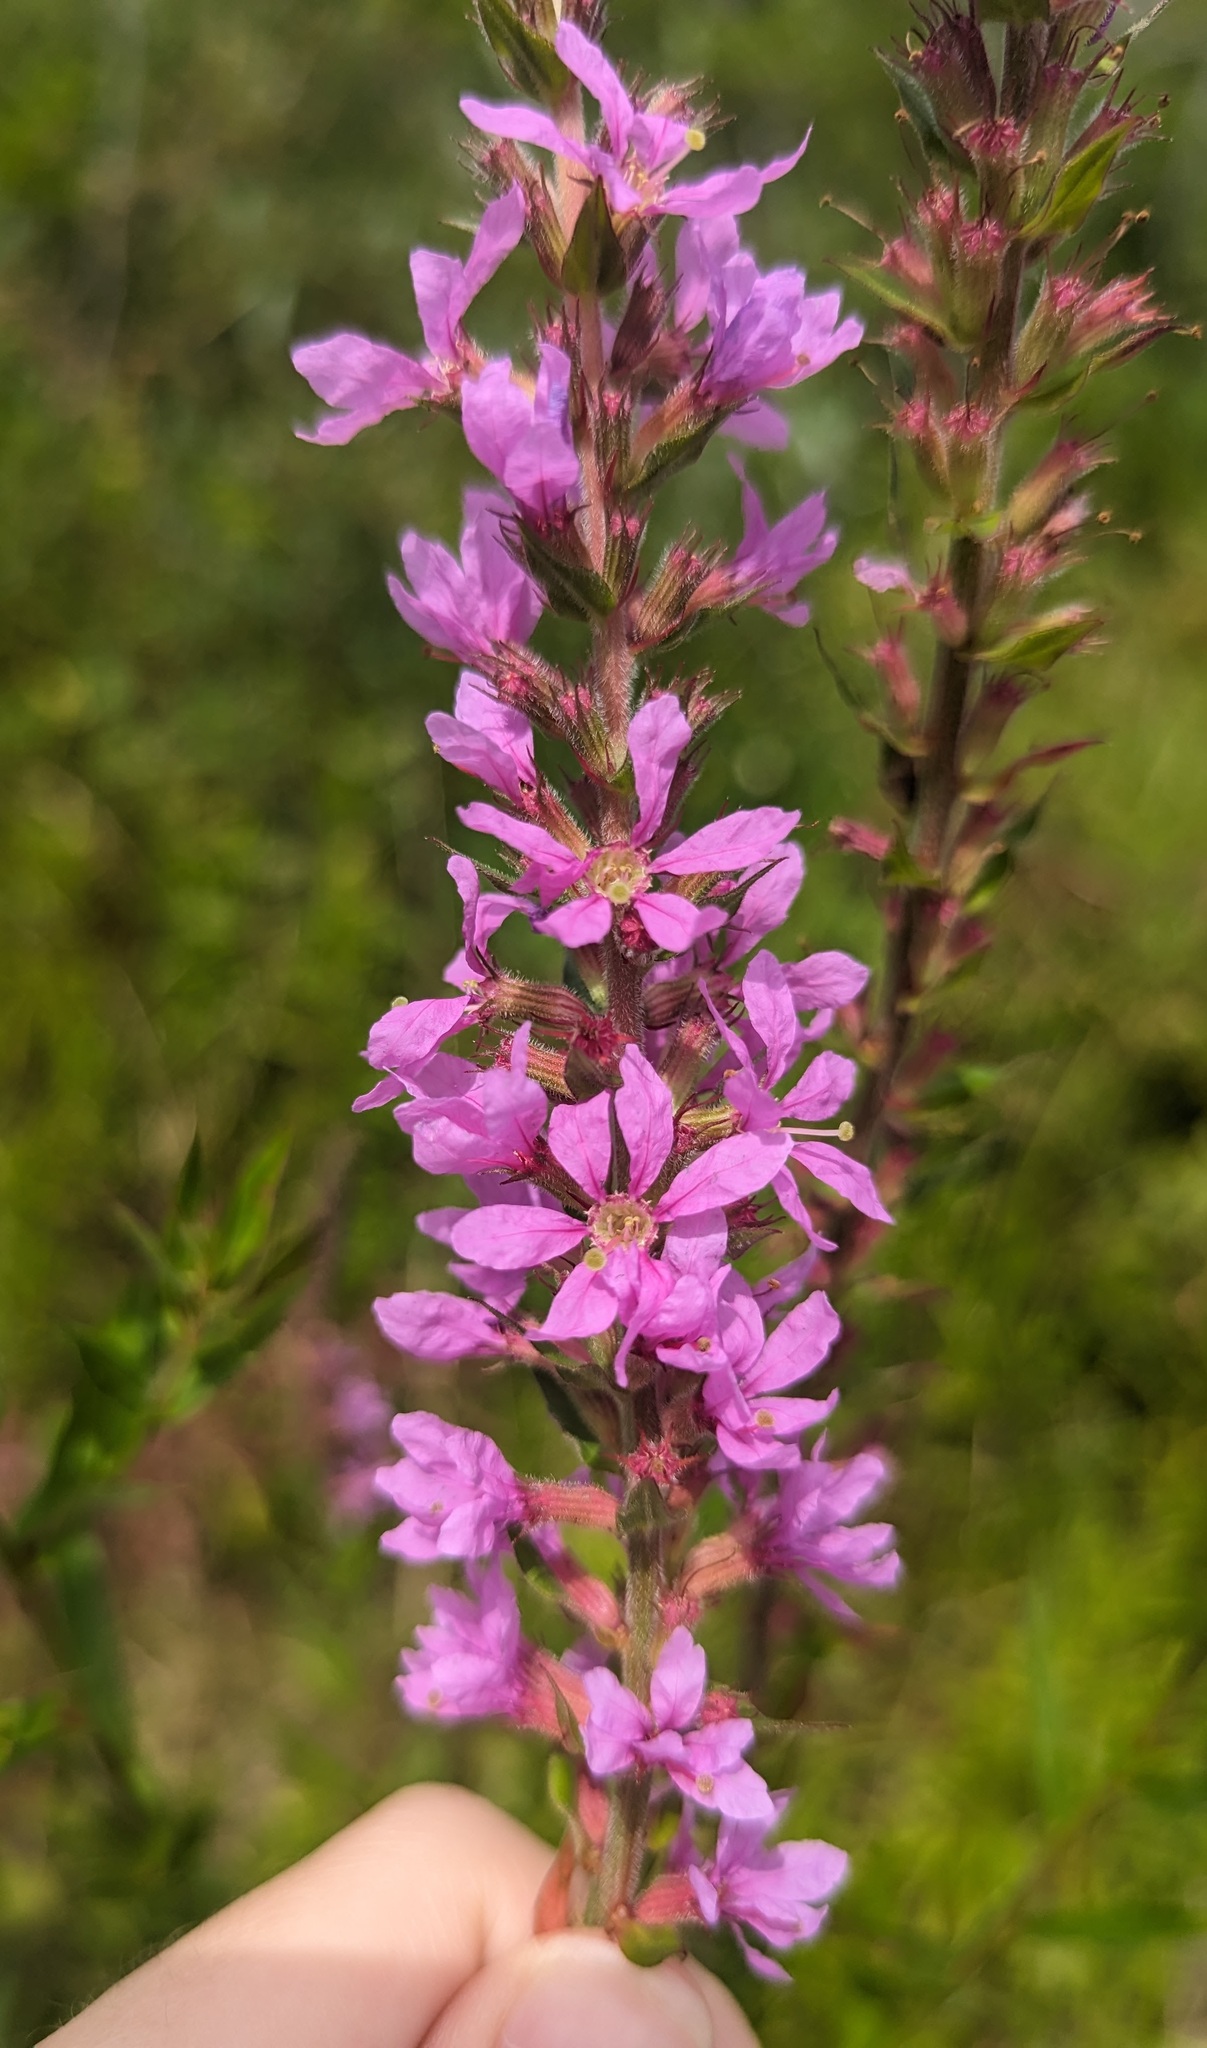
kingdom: Plantae
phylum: Tracheophyta
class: Magnoliopsida
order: Myrtales
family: Lythraceae
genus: Lythrum
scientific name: Lythrum salicaria
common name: Purple loosestrife
